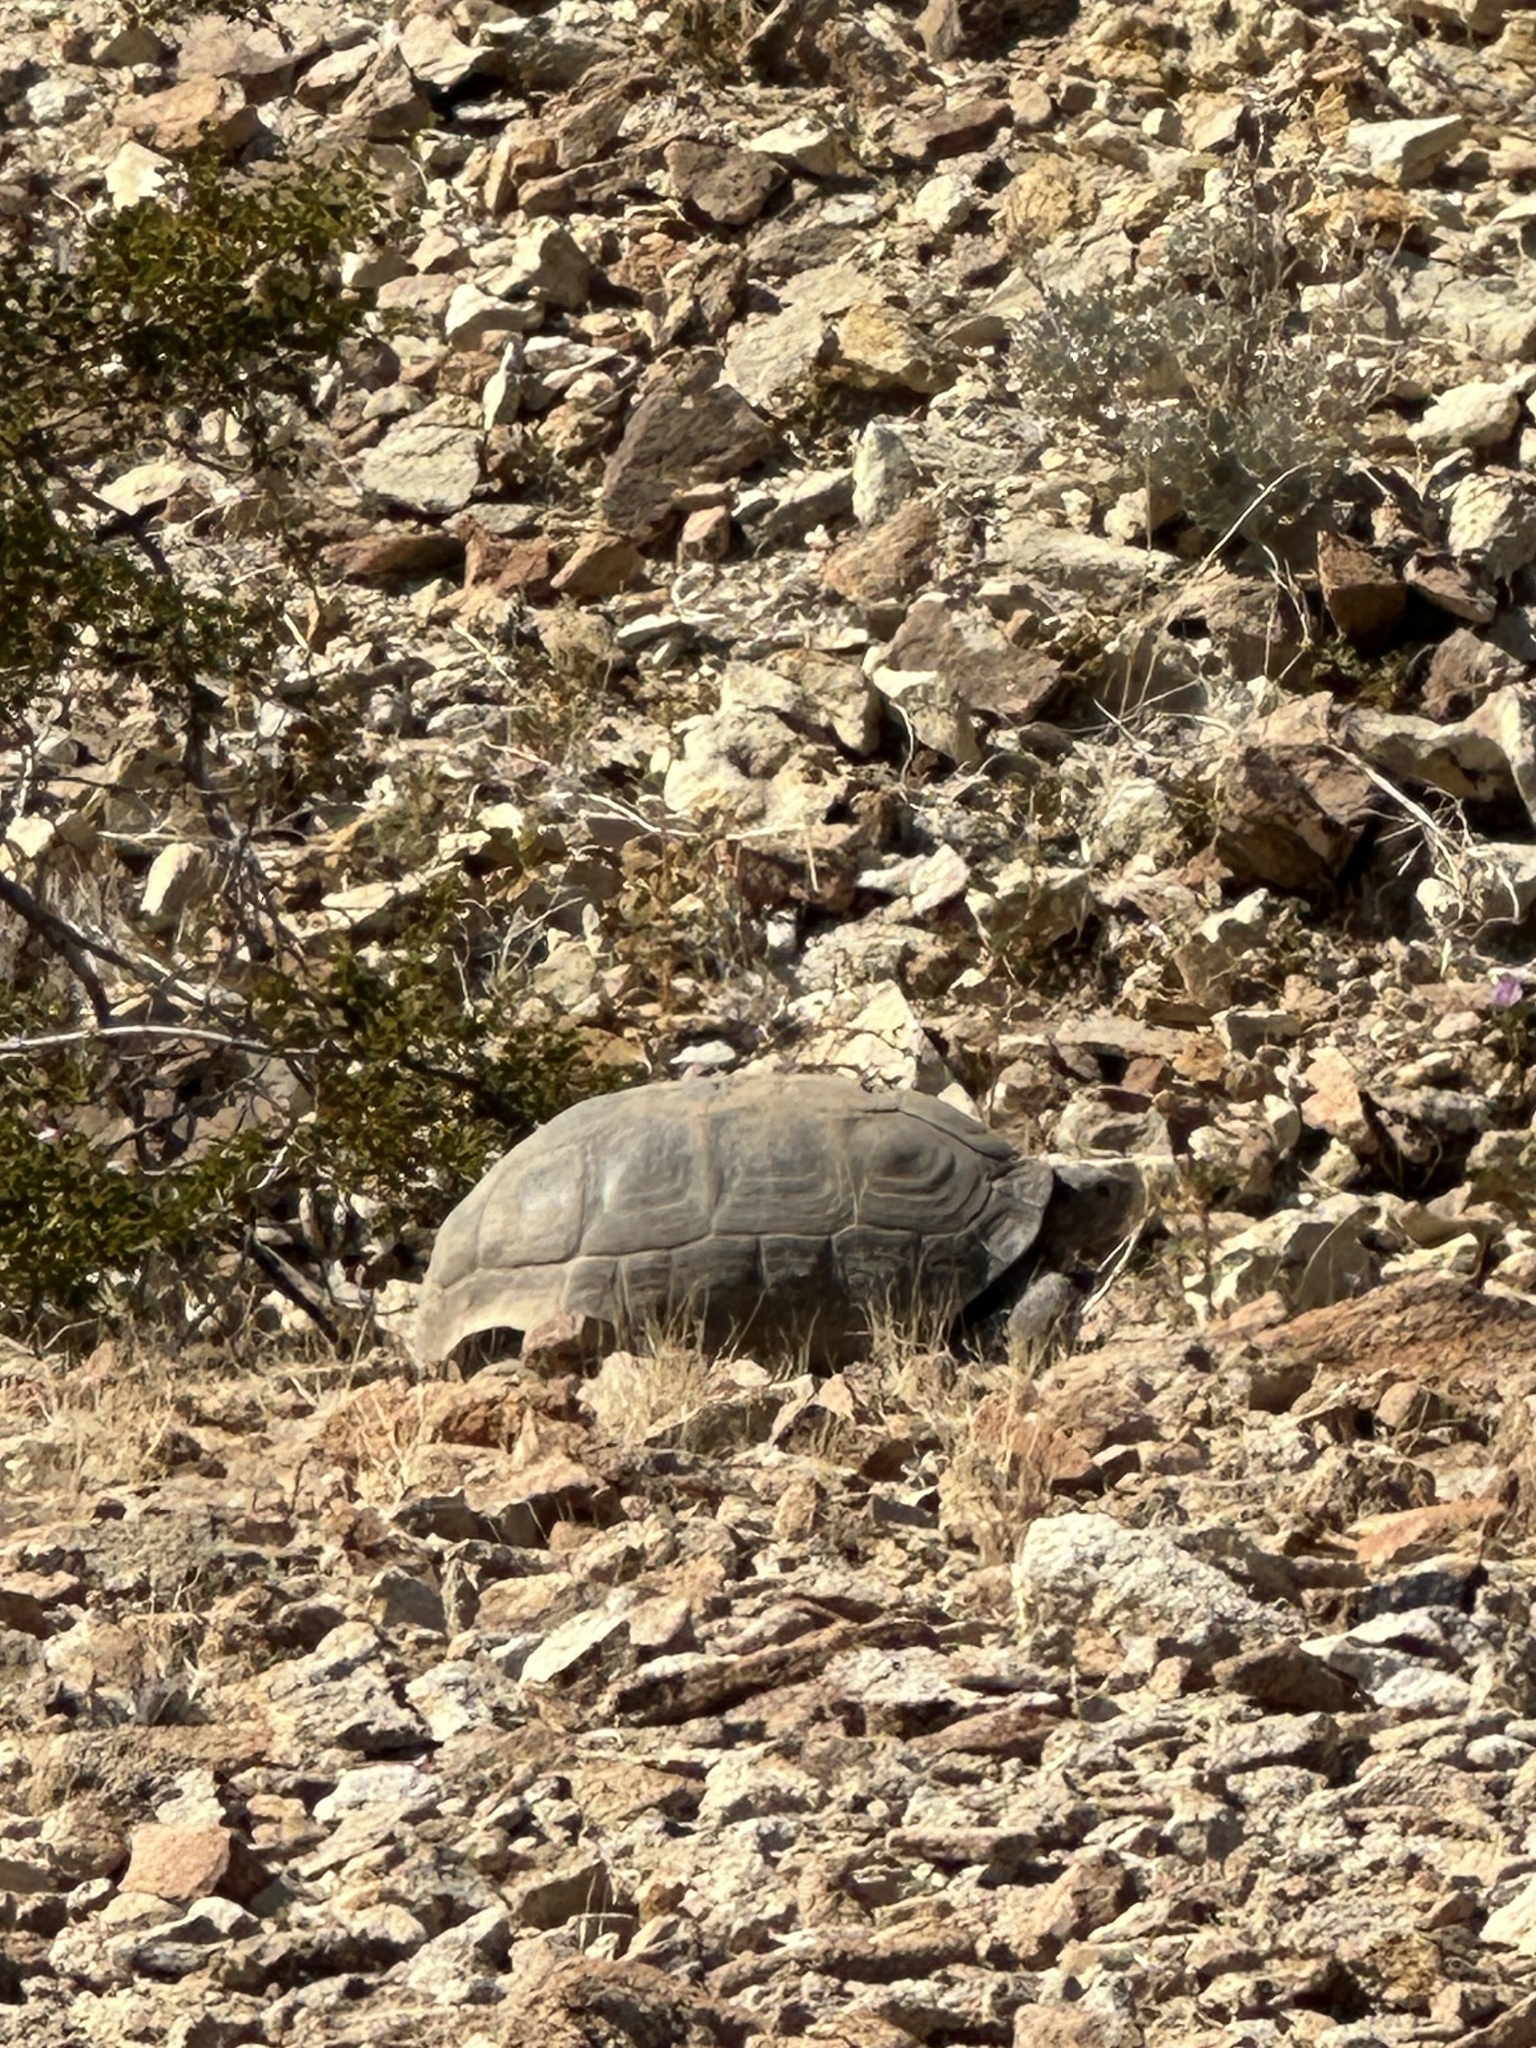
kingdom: Animalia
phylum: Chordata
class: Testudines
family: Testudinidae
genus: Gopherus
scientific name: Gopherus agassizii
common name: Mojave desert tortoise
